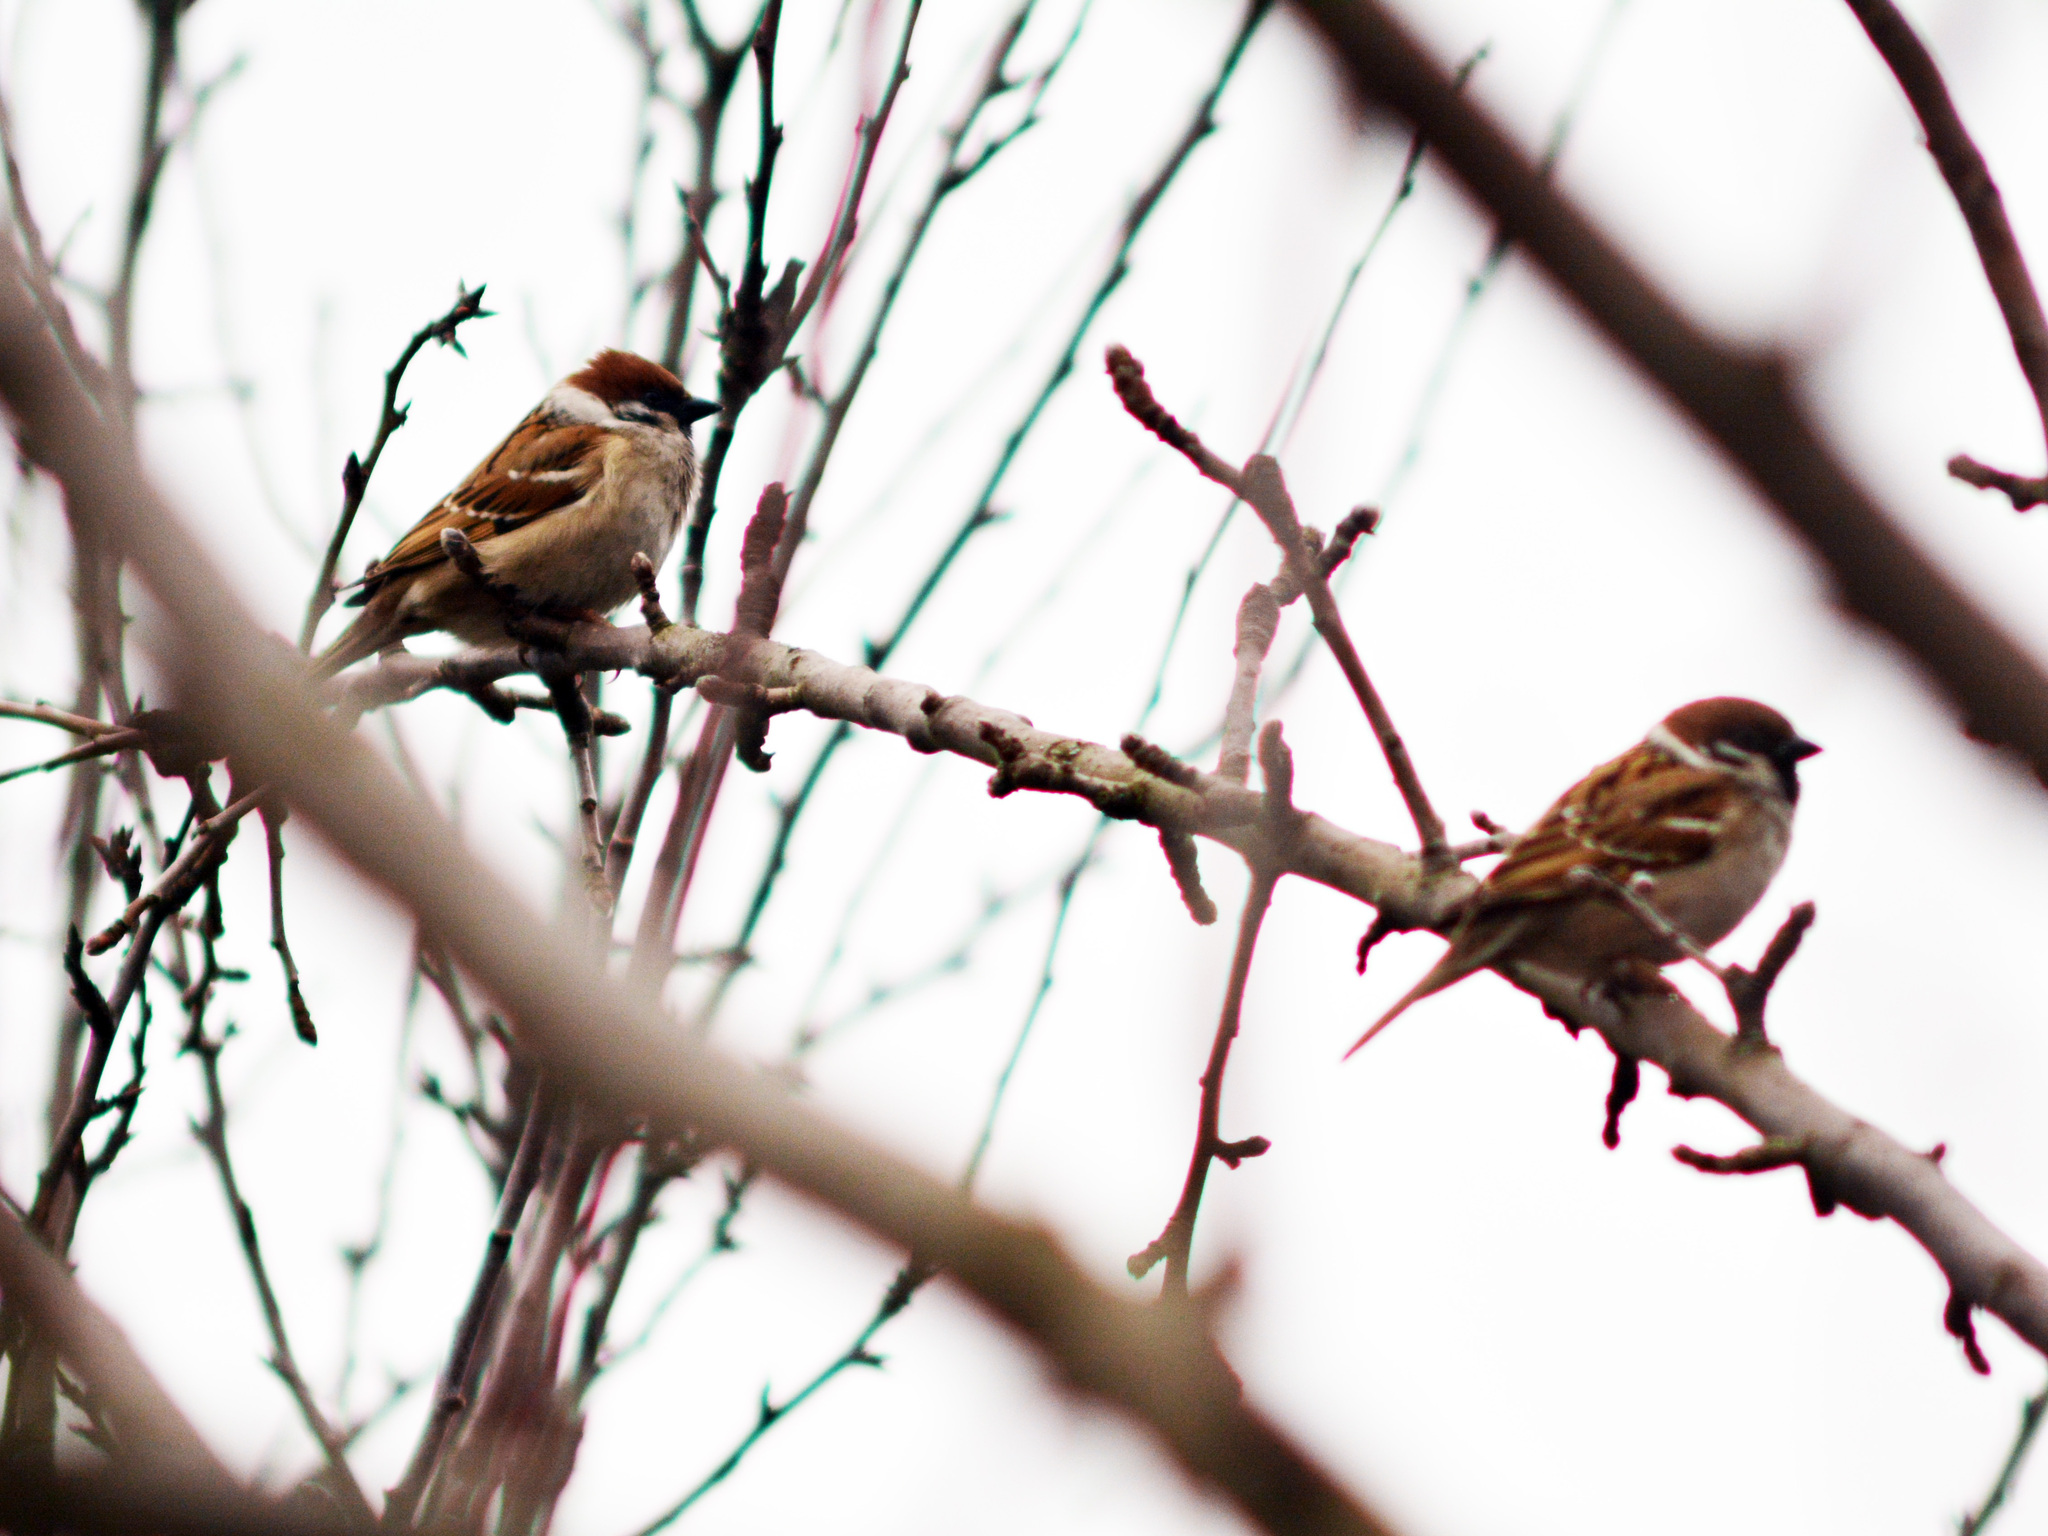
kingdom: Animalia
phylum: Chordata
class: Aves
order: Passeriformes
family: Passeridae
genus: Passer
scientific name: Passer montanus
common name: Eurasian tree sparrow
